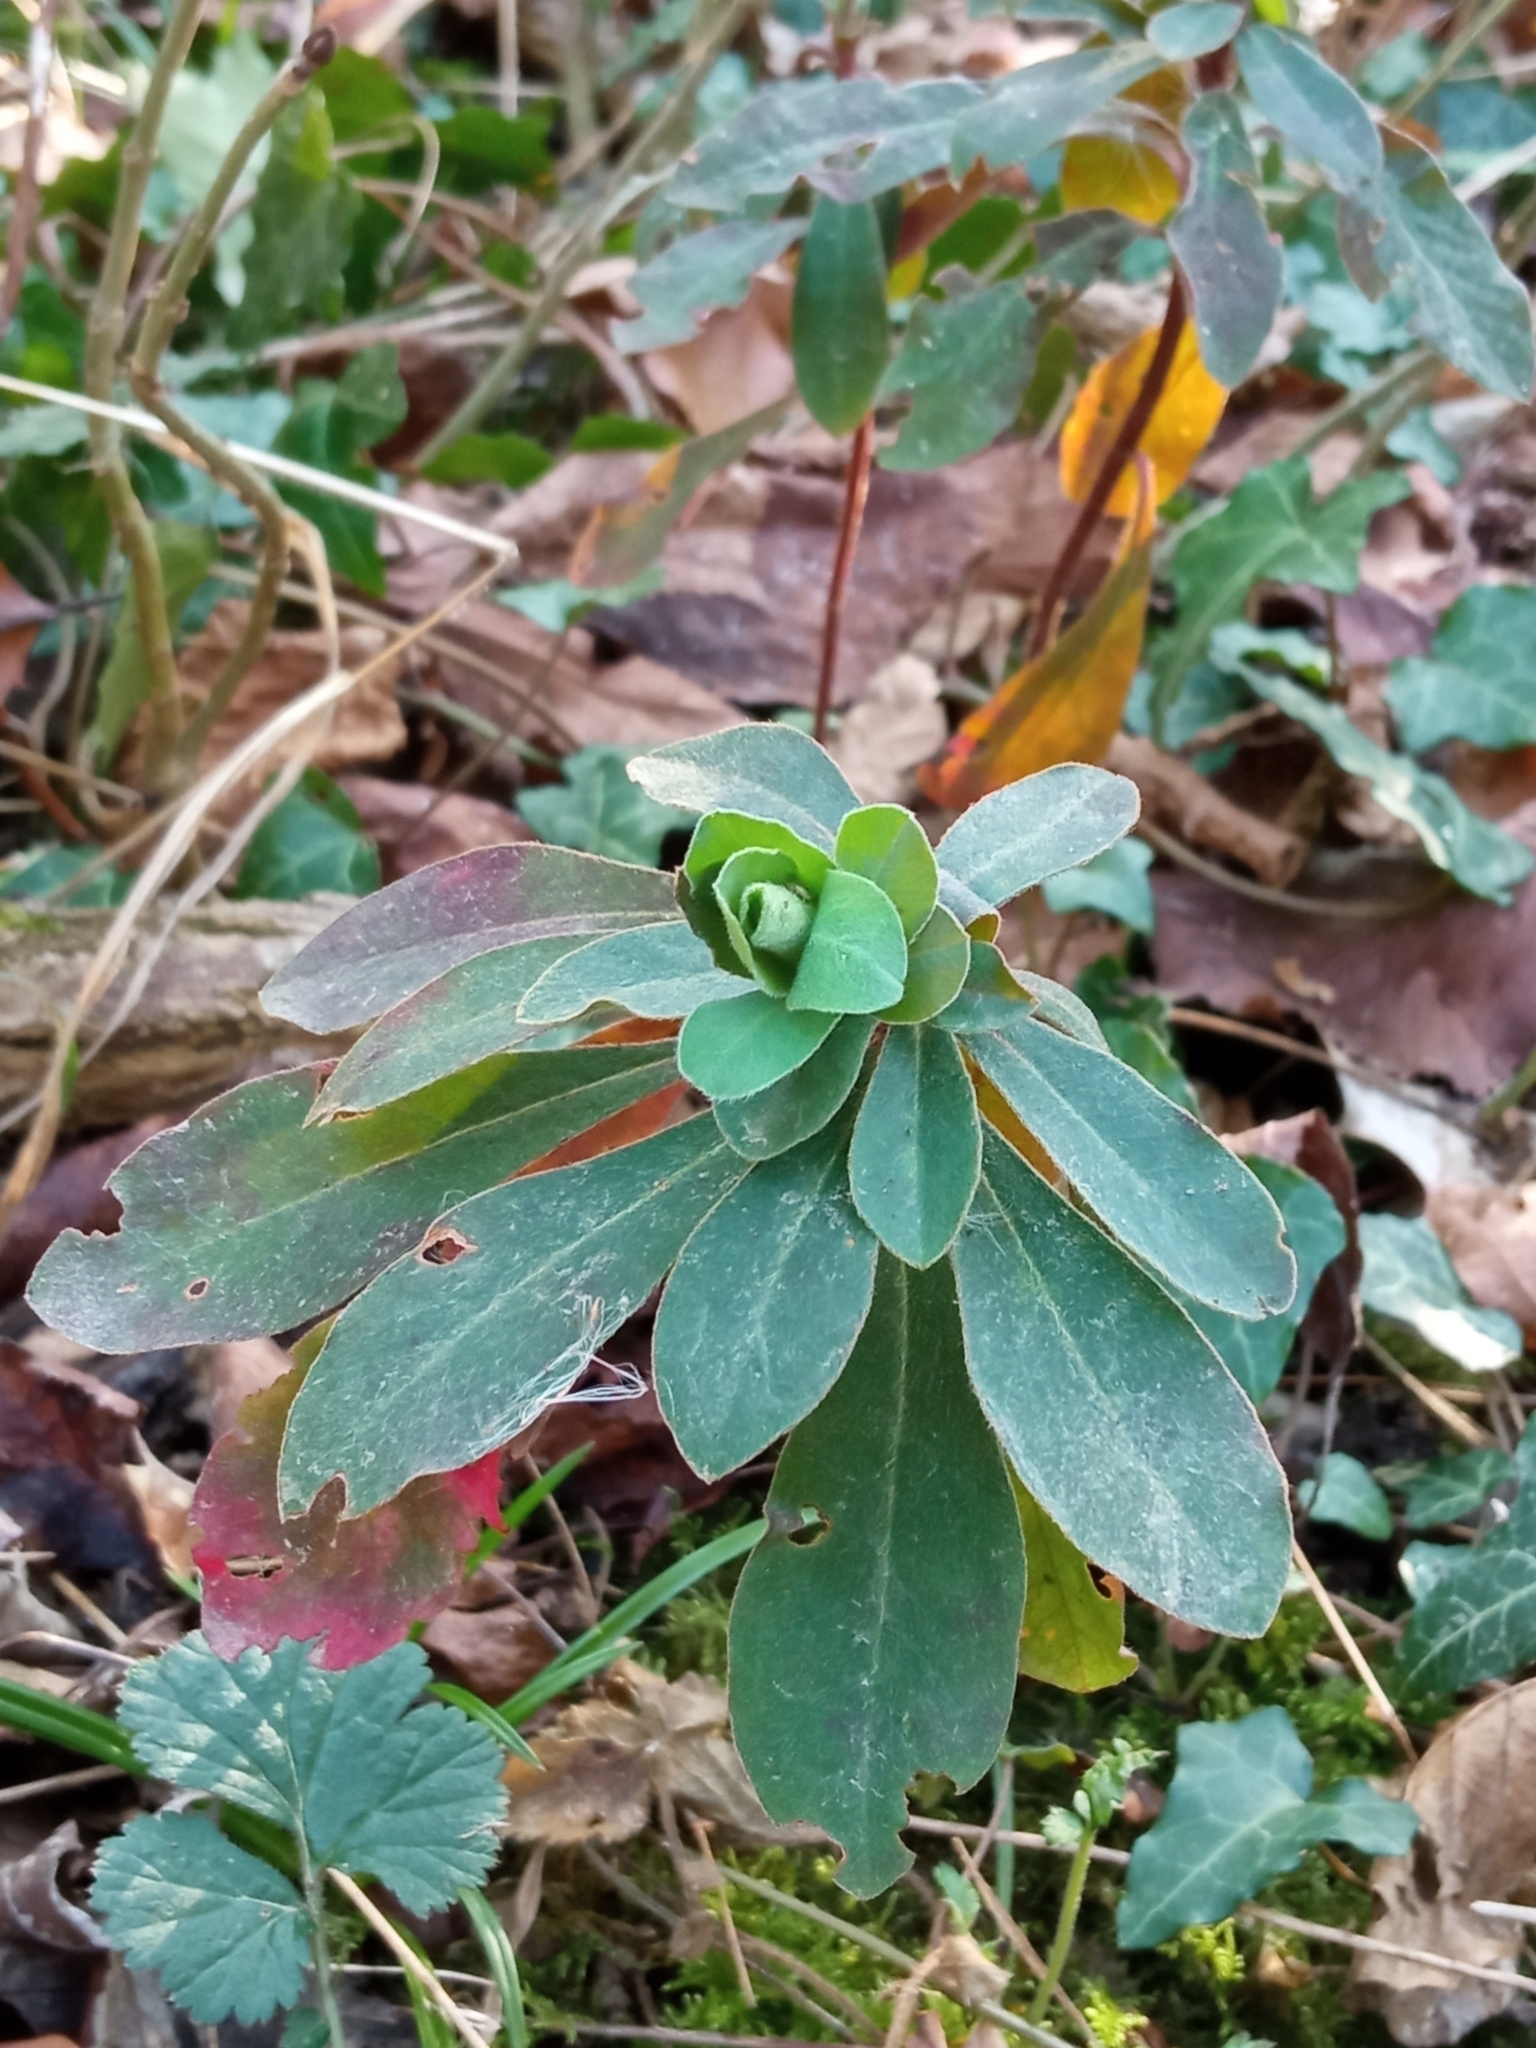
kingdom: Plantae
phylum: Tracheophyta
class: Magnoliopsida
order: Malpighiales
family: Euphorbiaceae
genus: Euphorbia
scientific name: Euphorbia amygdaloides
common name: Wood spurge
